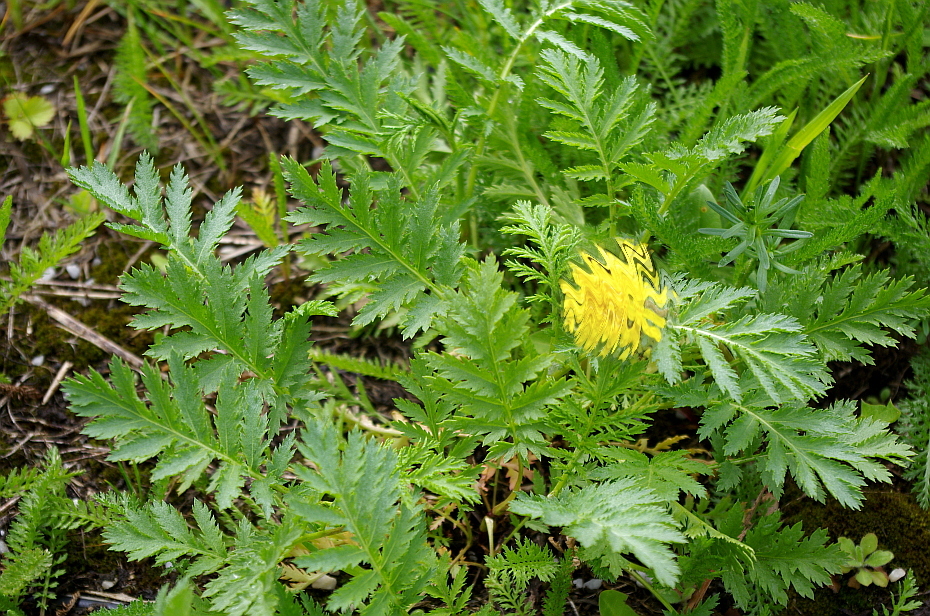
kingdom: Plantae
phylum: Tracheophyta
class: Magnoliopsida
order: Asterales
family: Asteraceae
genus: Tanacetum
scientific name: Tanacetum vulgare
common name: Common tansy
